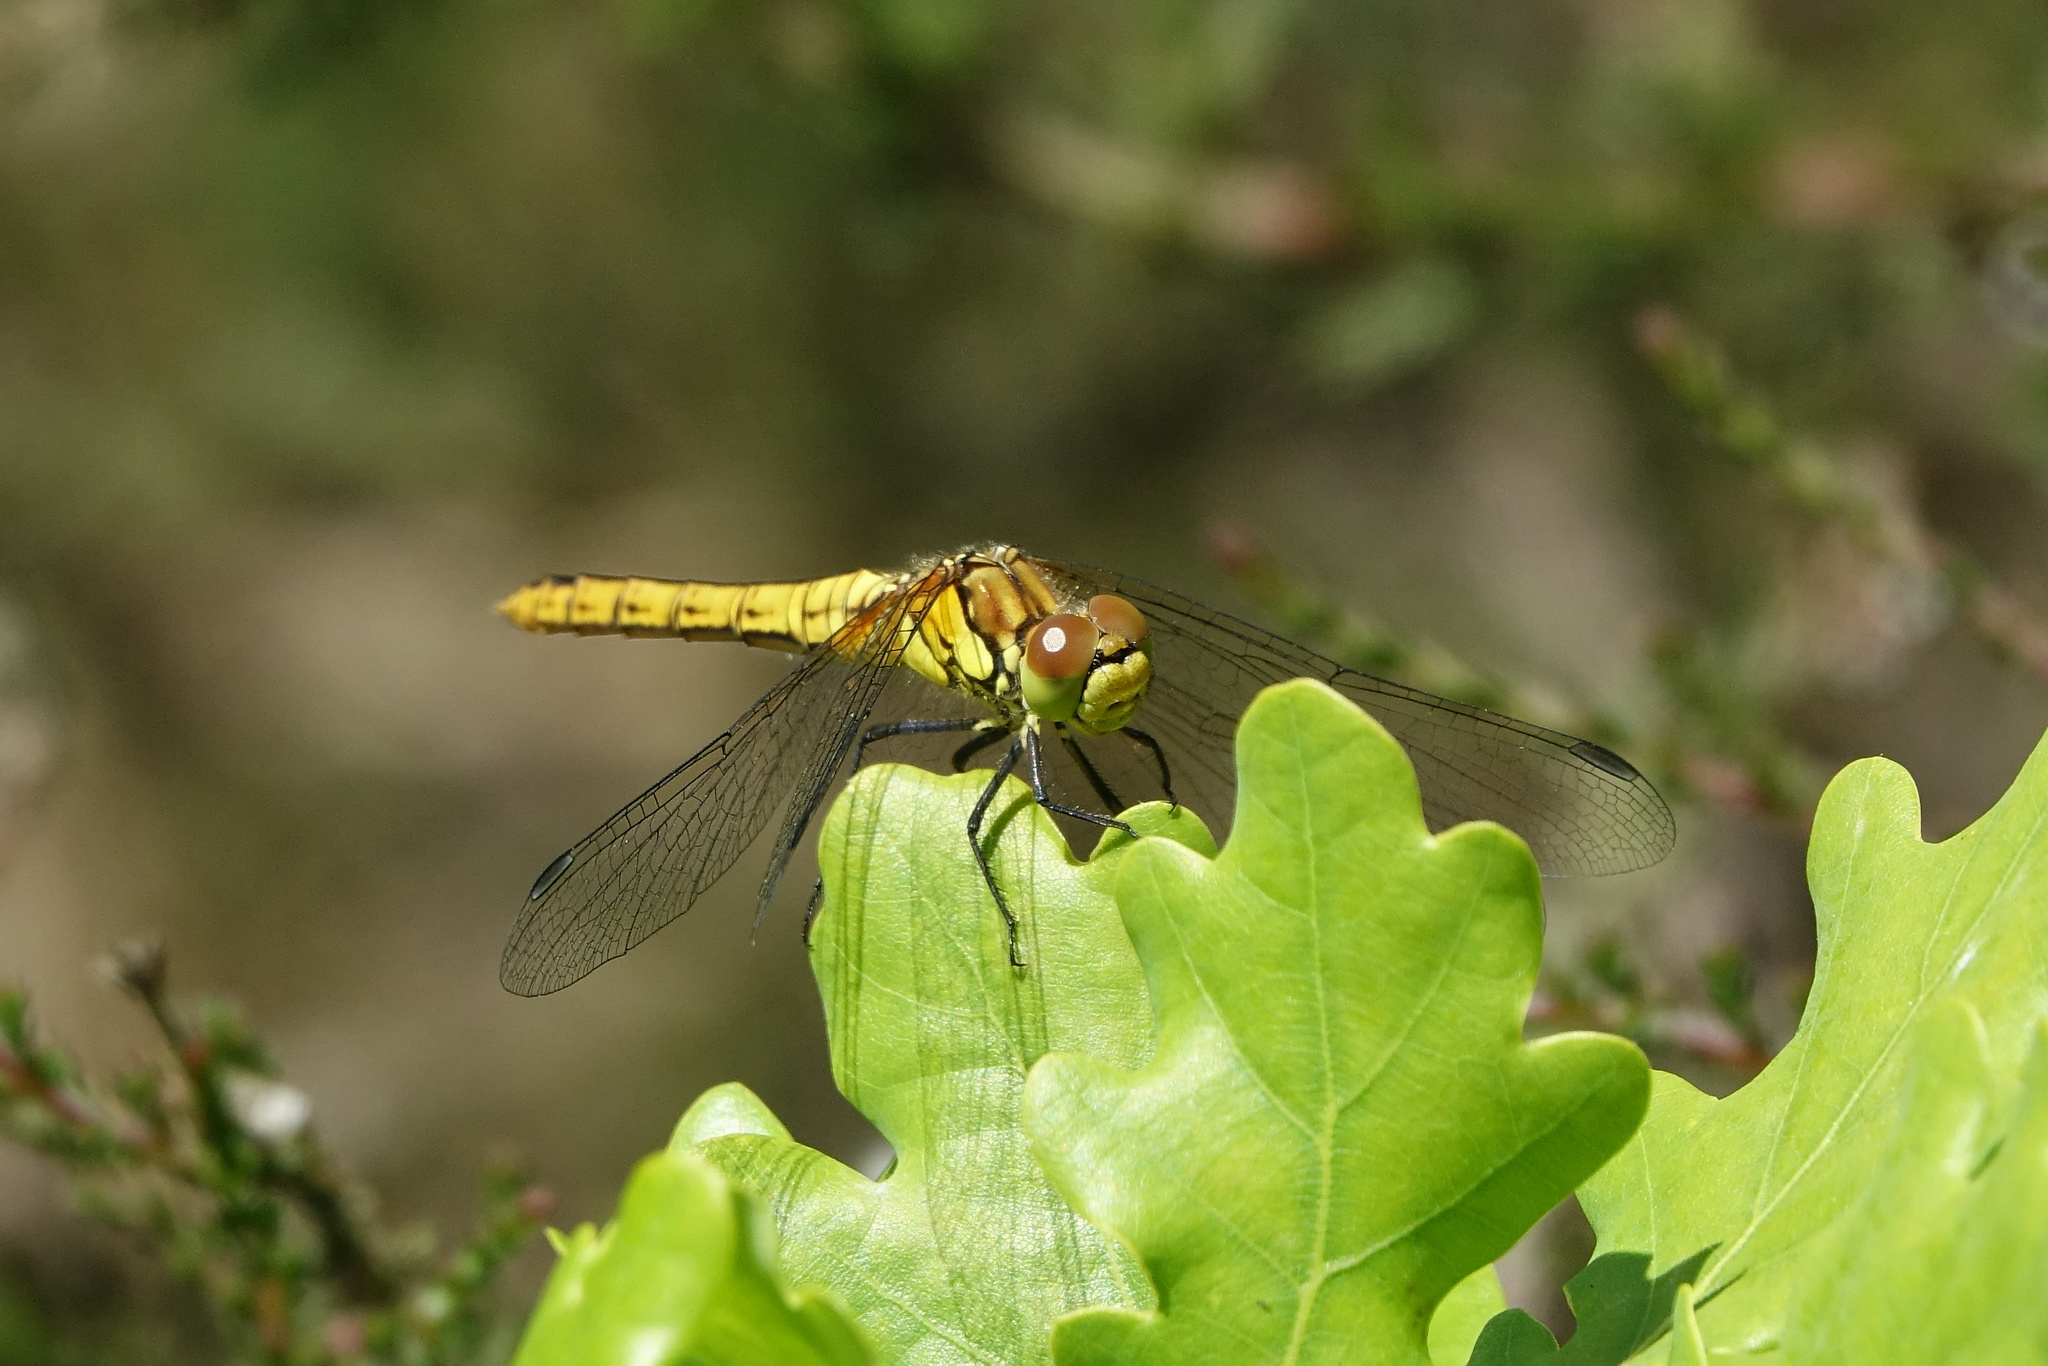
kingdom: Animalia
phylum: Arthropoda
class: Insecta
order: Odonata
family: Libellulidae
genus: Sympetrum
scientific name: Sympetrum sanguineum
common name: Ruddy darter
